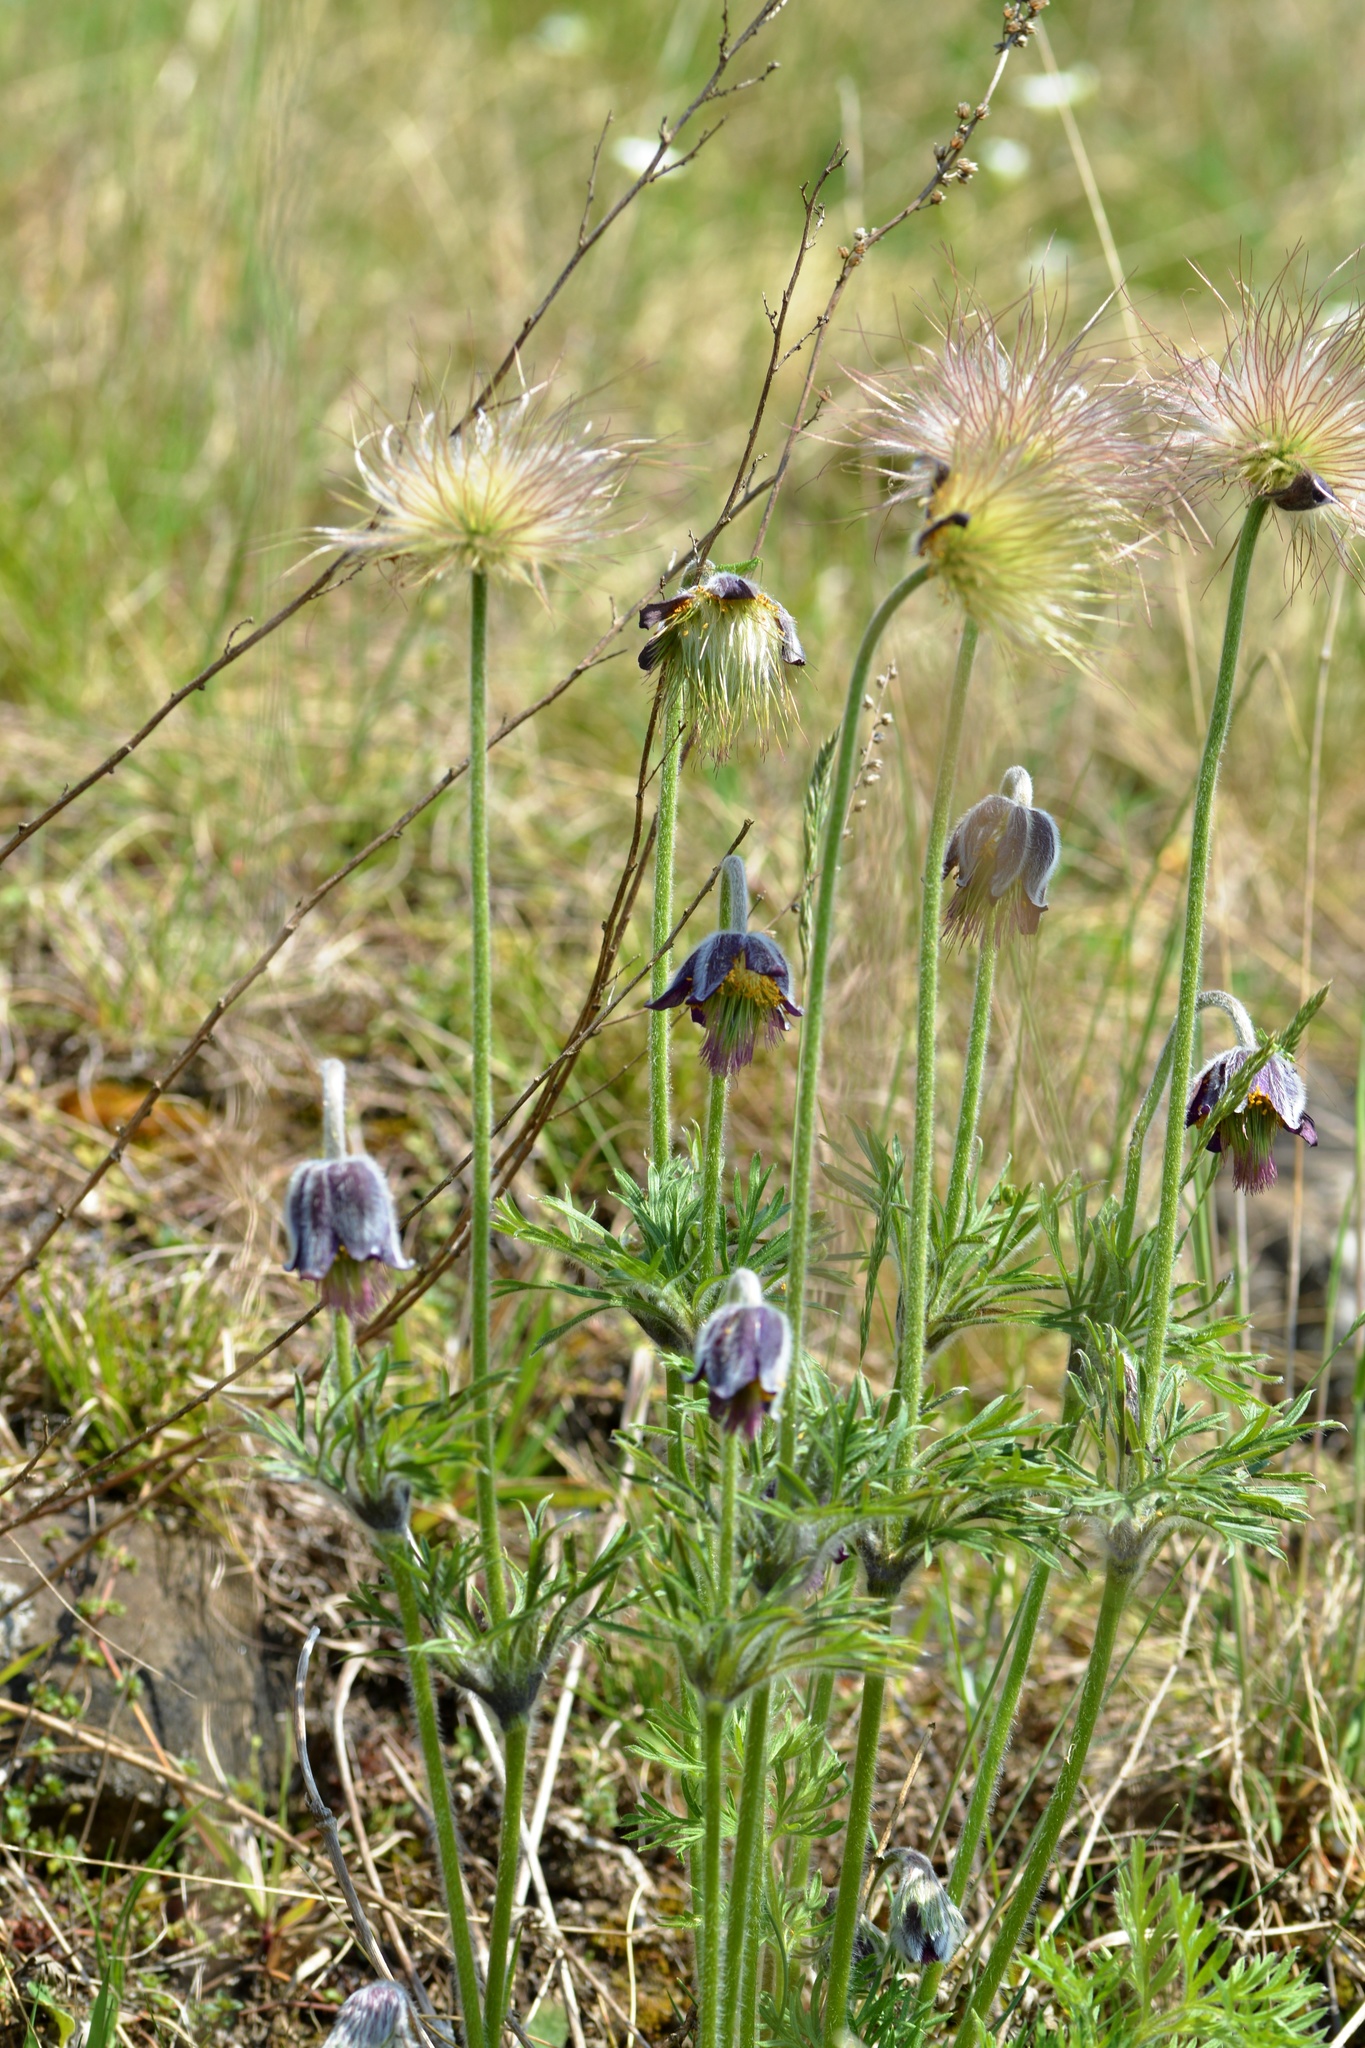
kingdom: Plantae
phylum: Tracheophyta
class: Magnoliopsida
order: Ranunculales
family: Ranunculaceae
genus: Pulsatilla
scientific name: Pulsatilla pratensis
